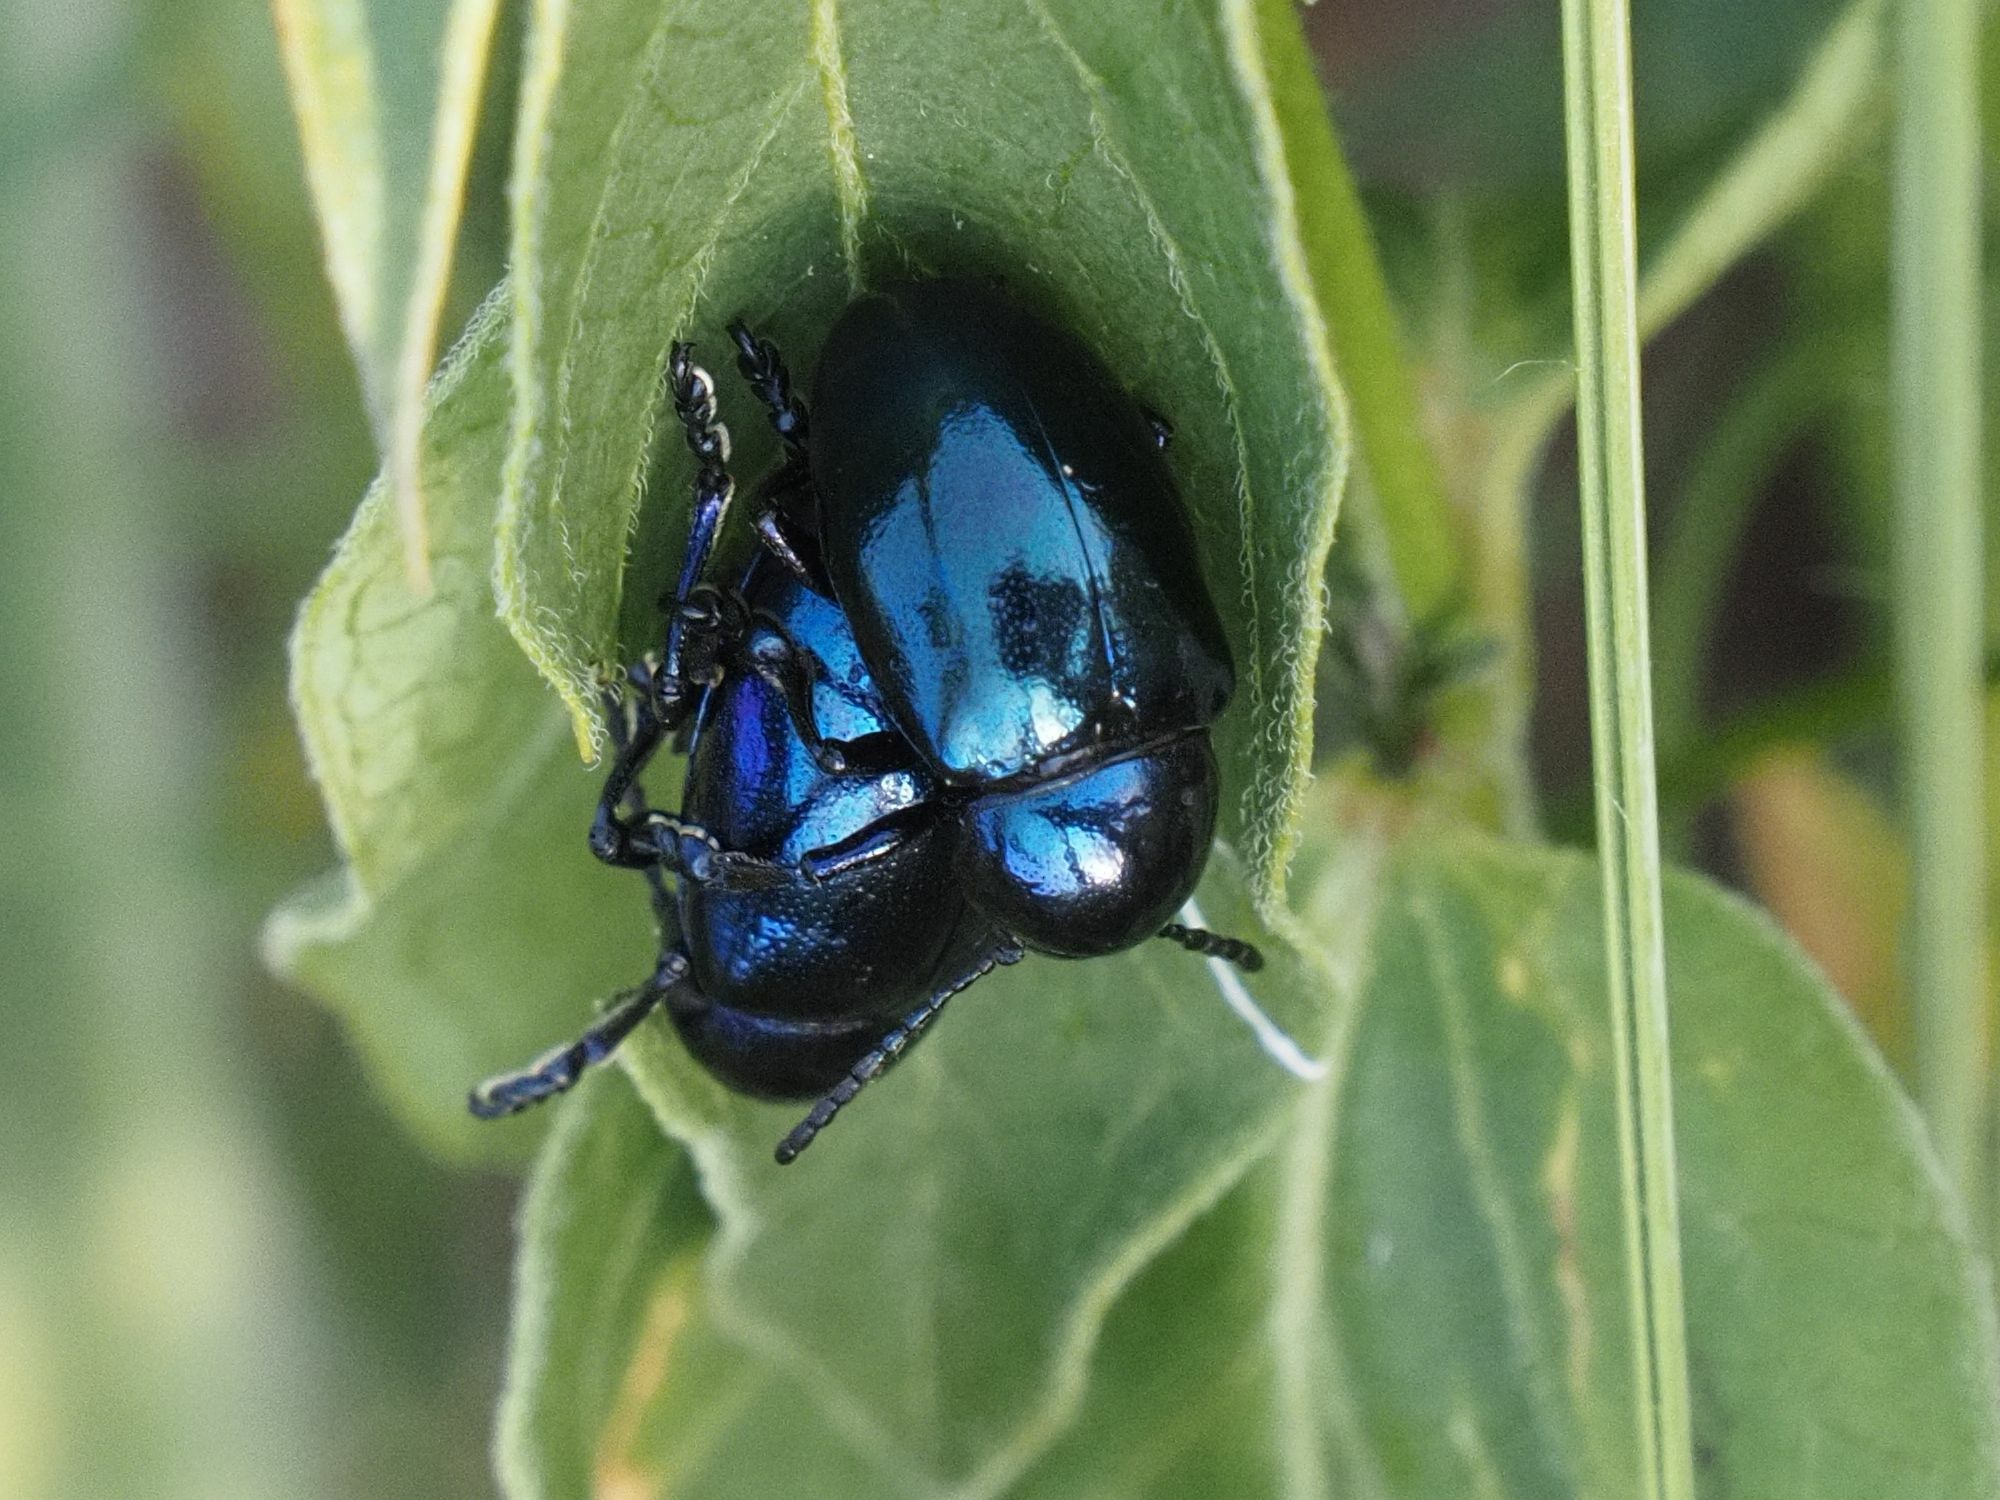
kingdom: Animalia
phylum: Arthropoda
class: Insecta
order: Coleoptera
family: Chrysomelidae
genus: Chrysochus
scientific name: Chrysochus asclepiadeus
